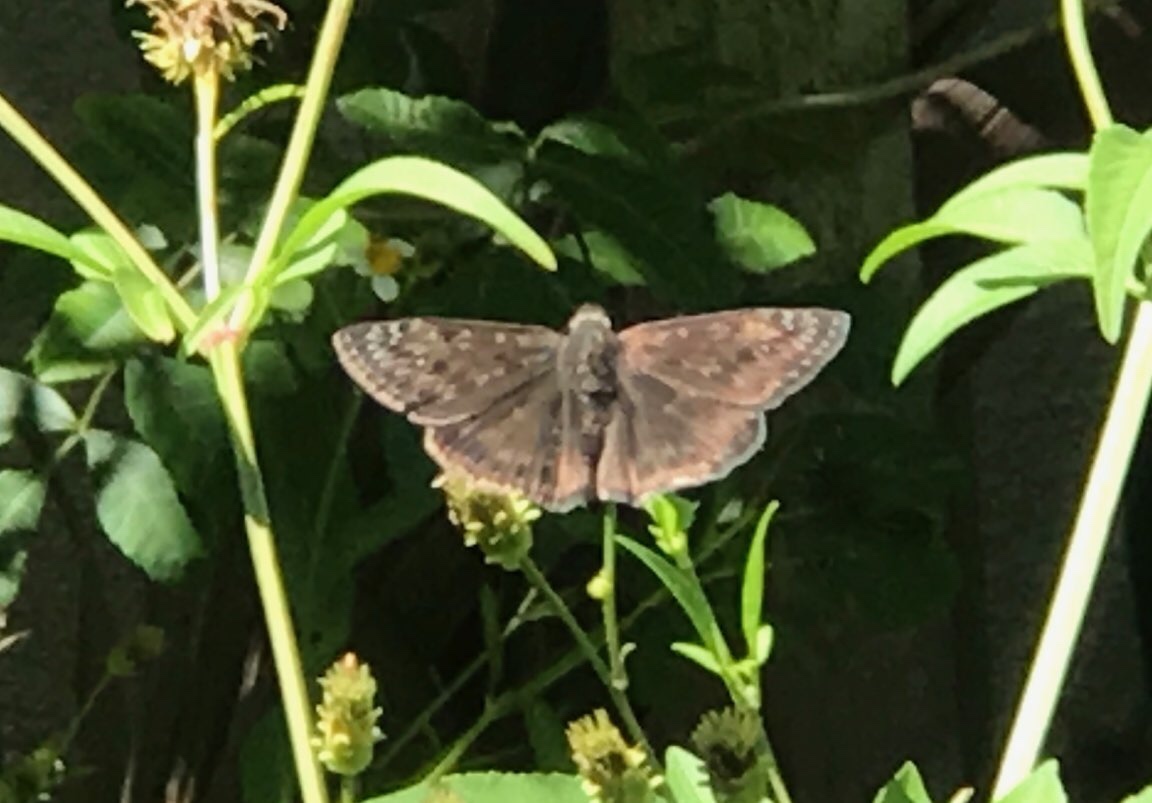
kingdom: Animalia
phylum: Arthropoda
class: Insecta
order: Lepidoptera
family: Hesperiidae
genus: Erynnis
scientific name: Erynnis horatius
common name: Horace's duskywing
